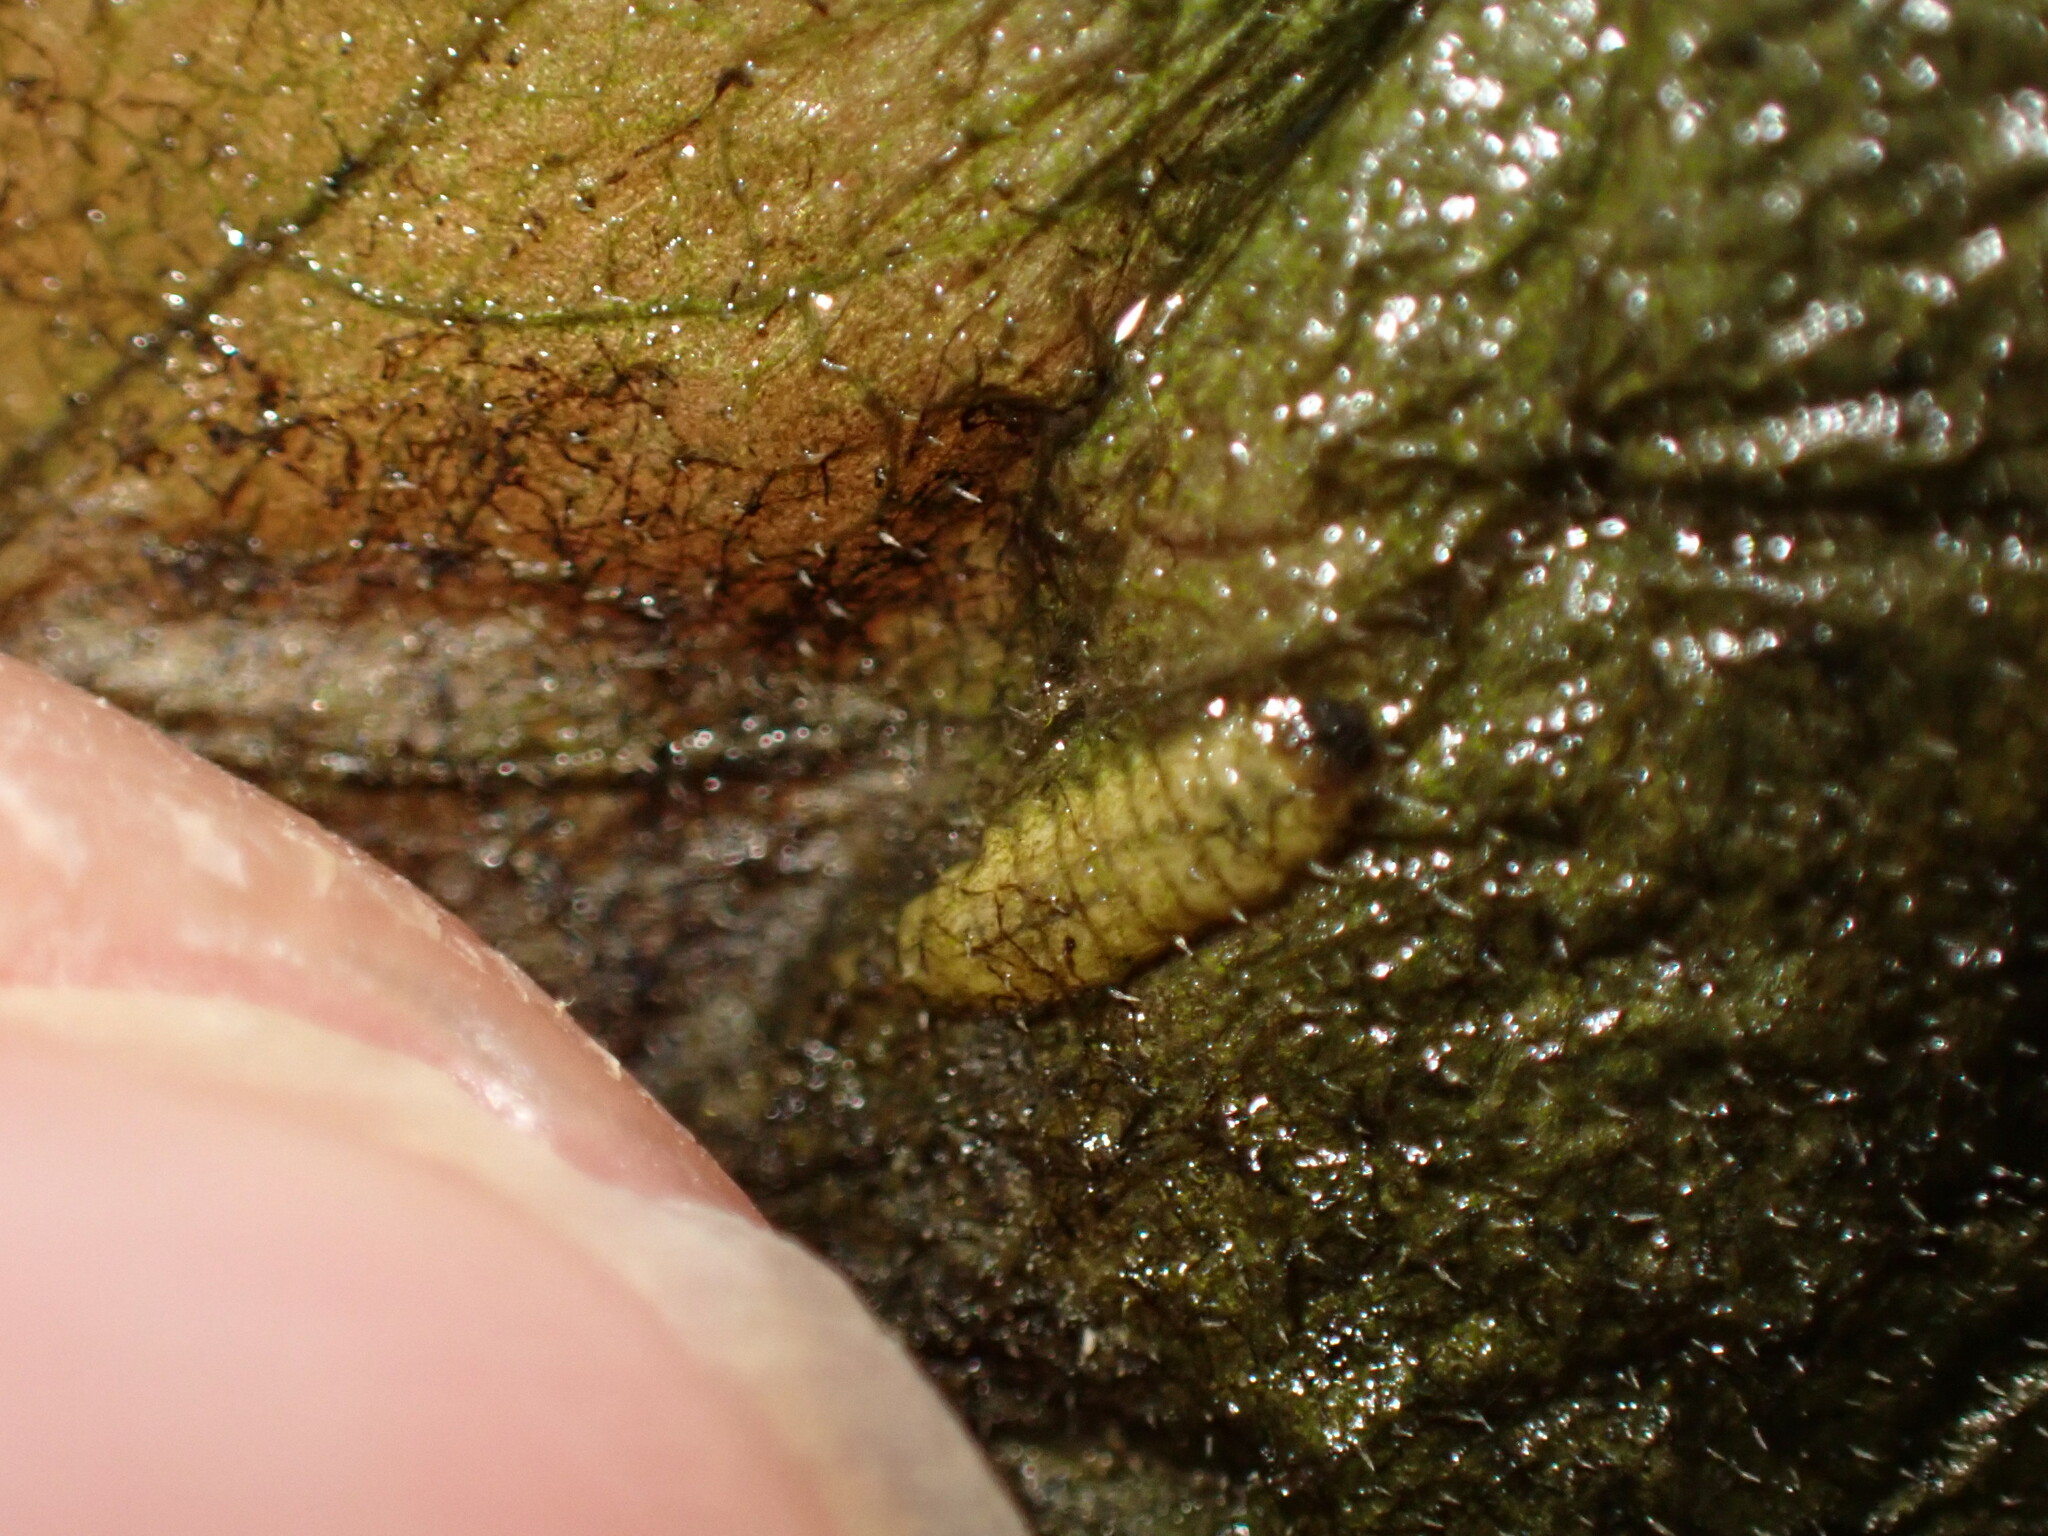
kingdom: Animalia
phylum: Arthropoda
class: Insecta
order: Coleoptera
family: Chrysomelidae
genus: Microrhopala
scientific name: Microrhopala vittata
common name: Goldenrod leaf miner beetle
